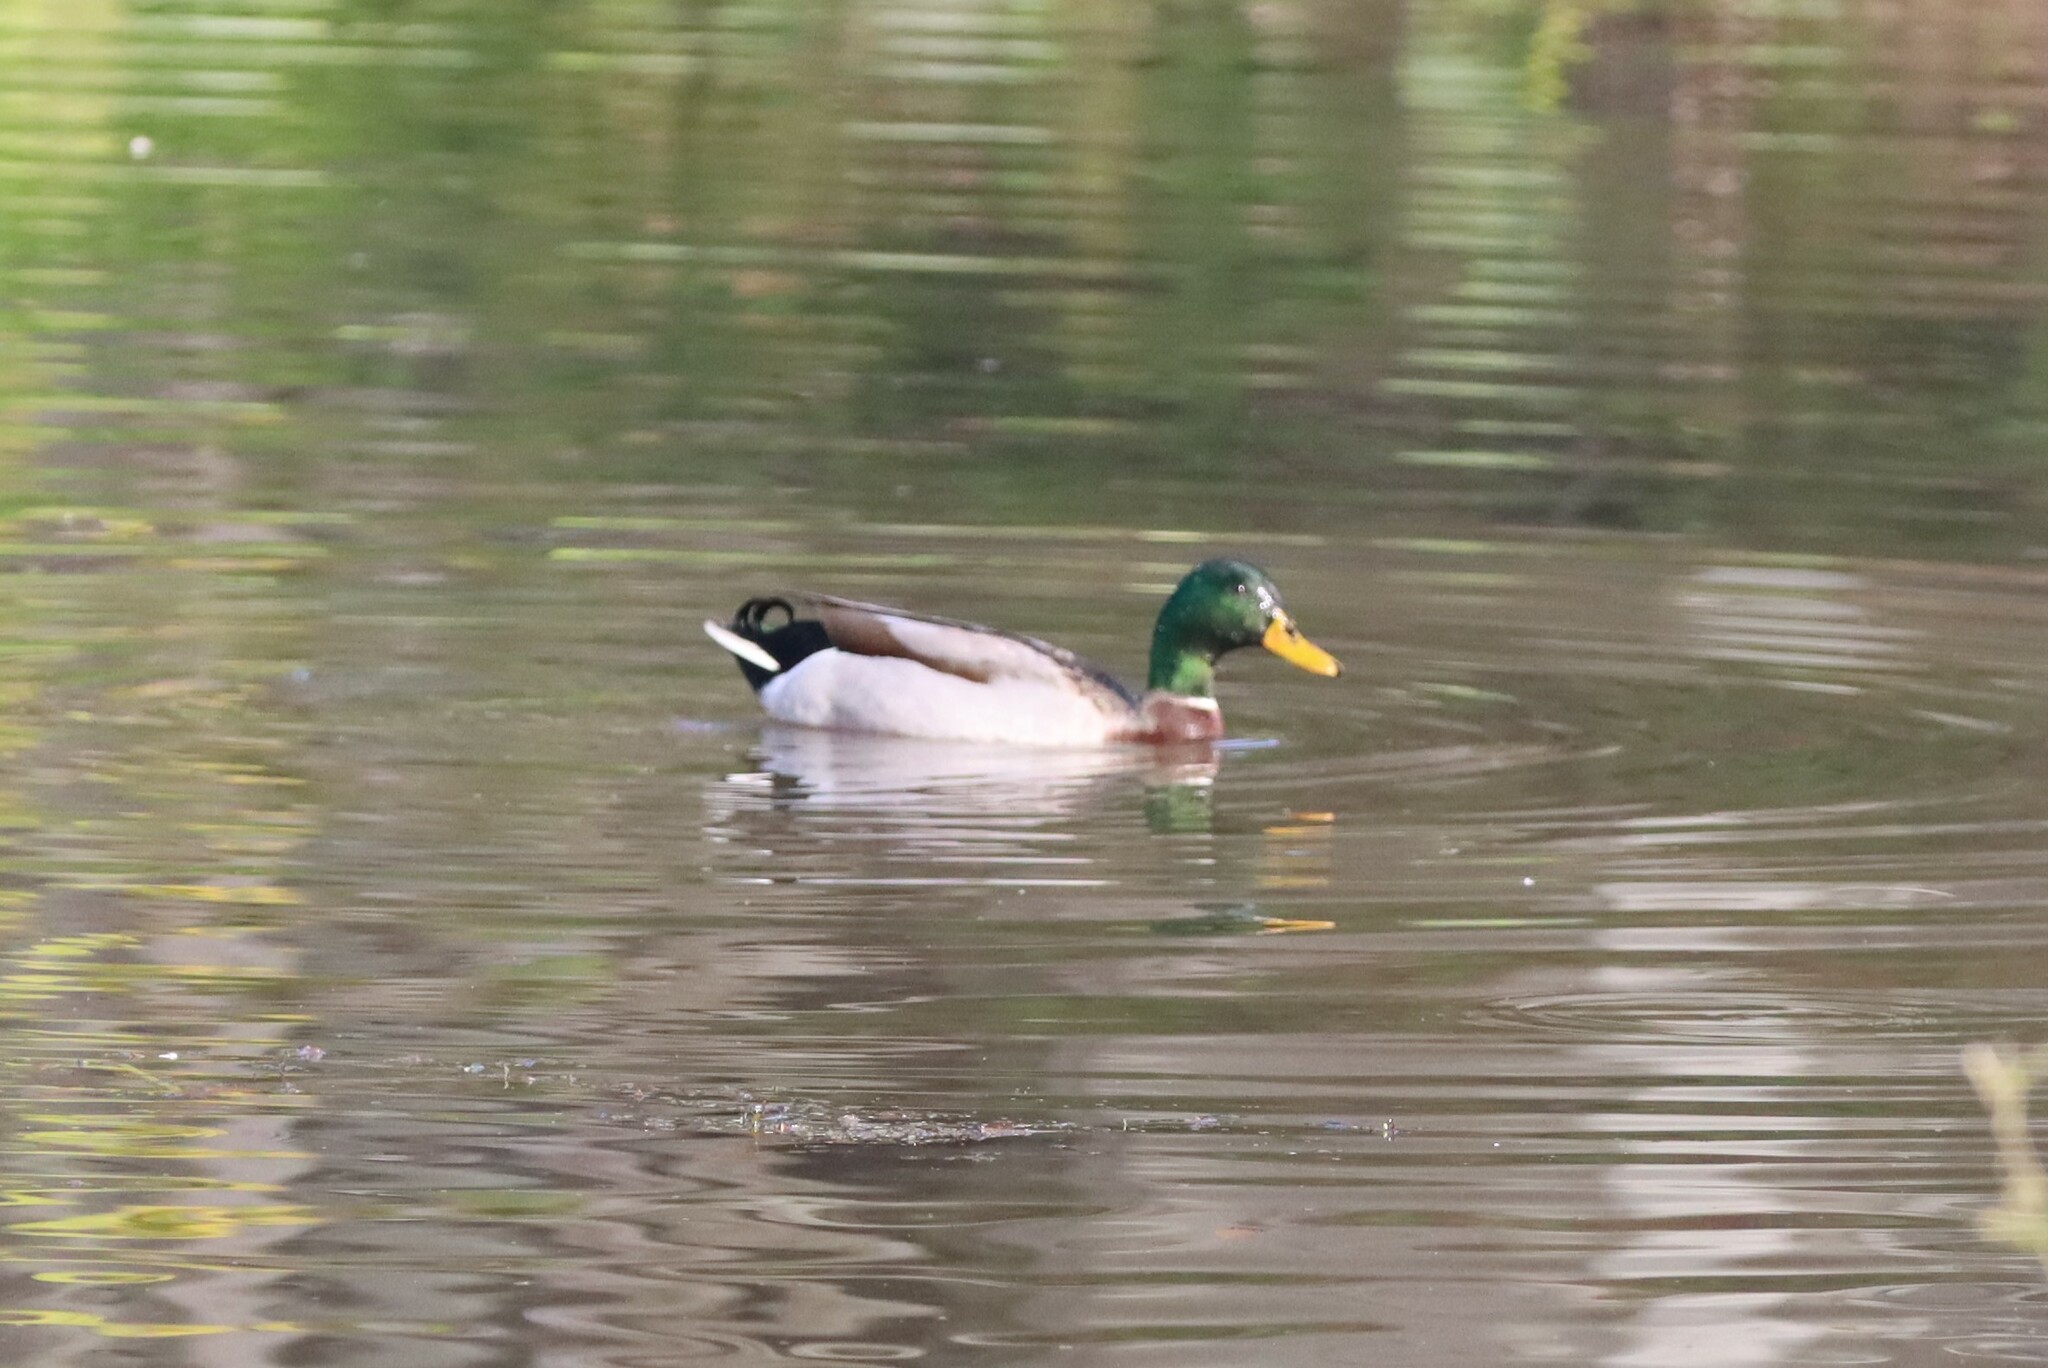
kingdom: Animalia
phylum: Chordata
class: Aves
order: Anseriformes
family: Anatidae
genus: Anas
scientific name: Anas platyrhynchos
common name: Mallard
